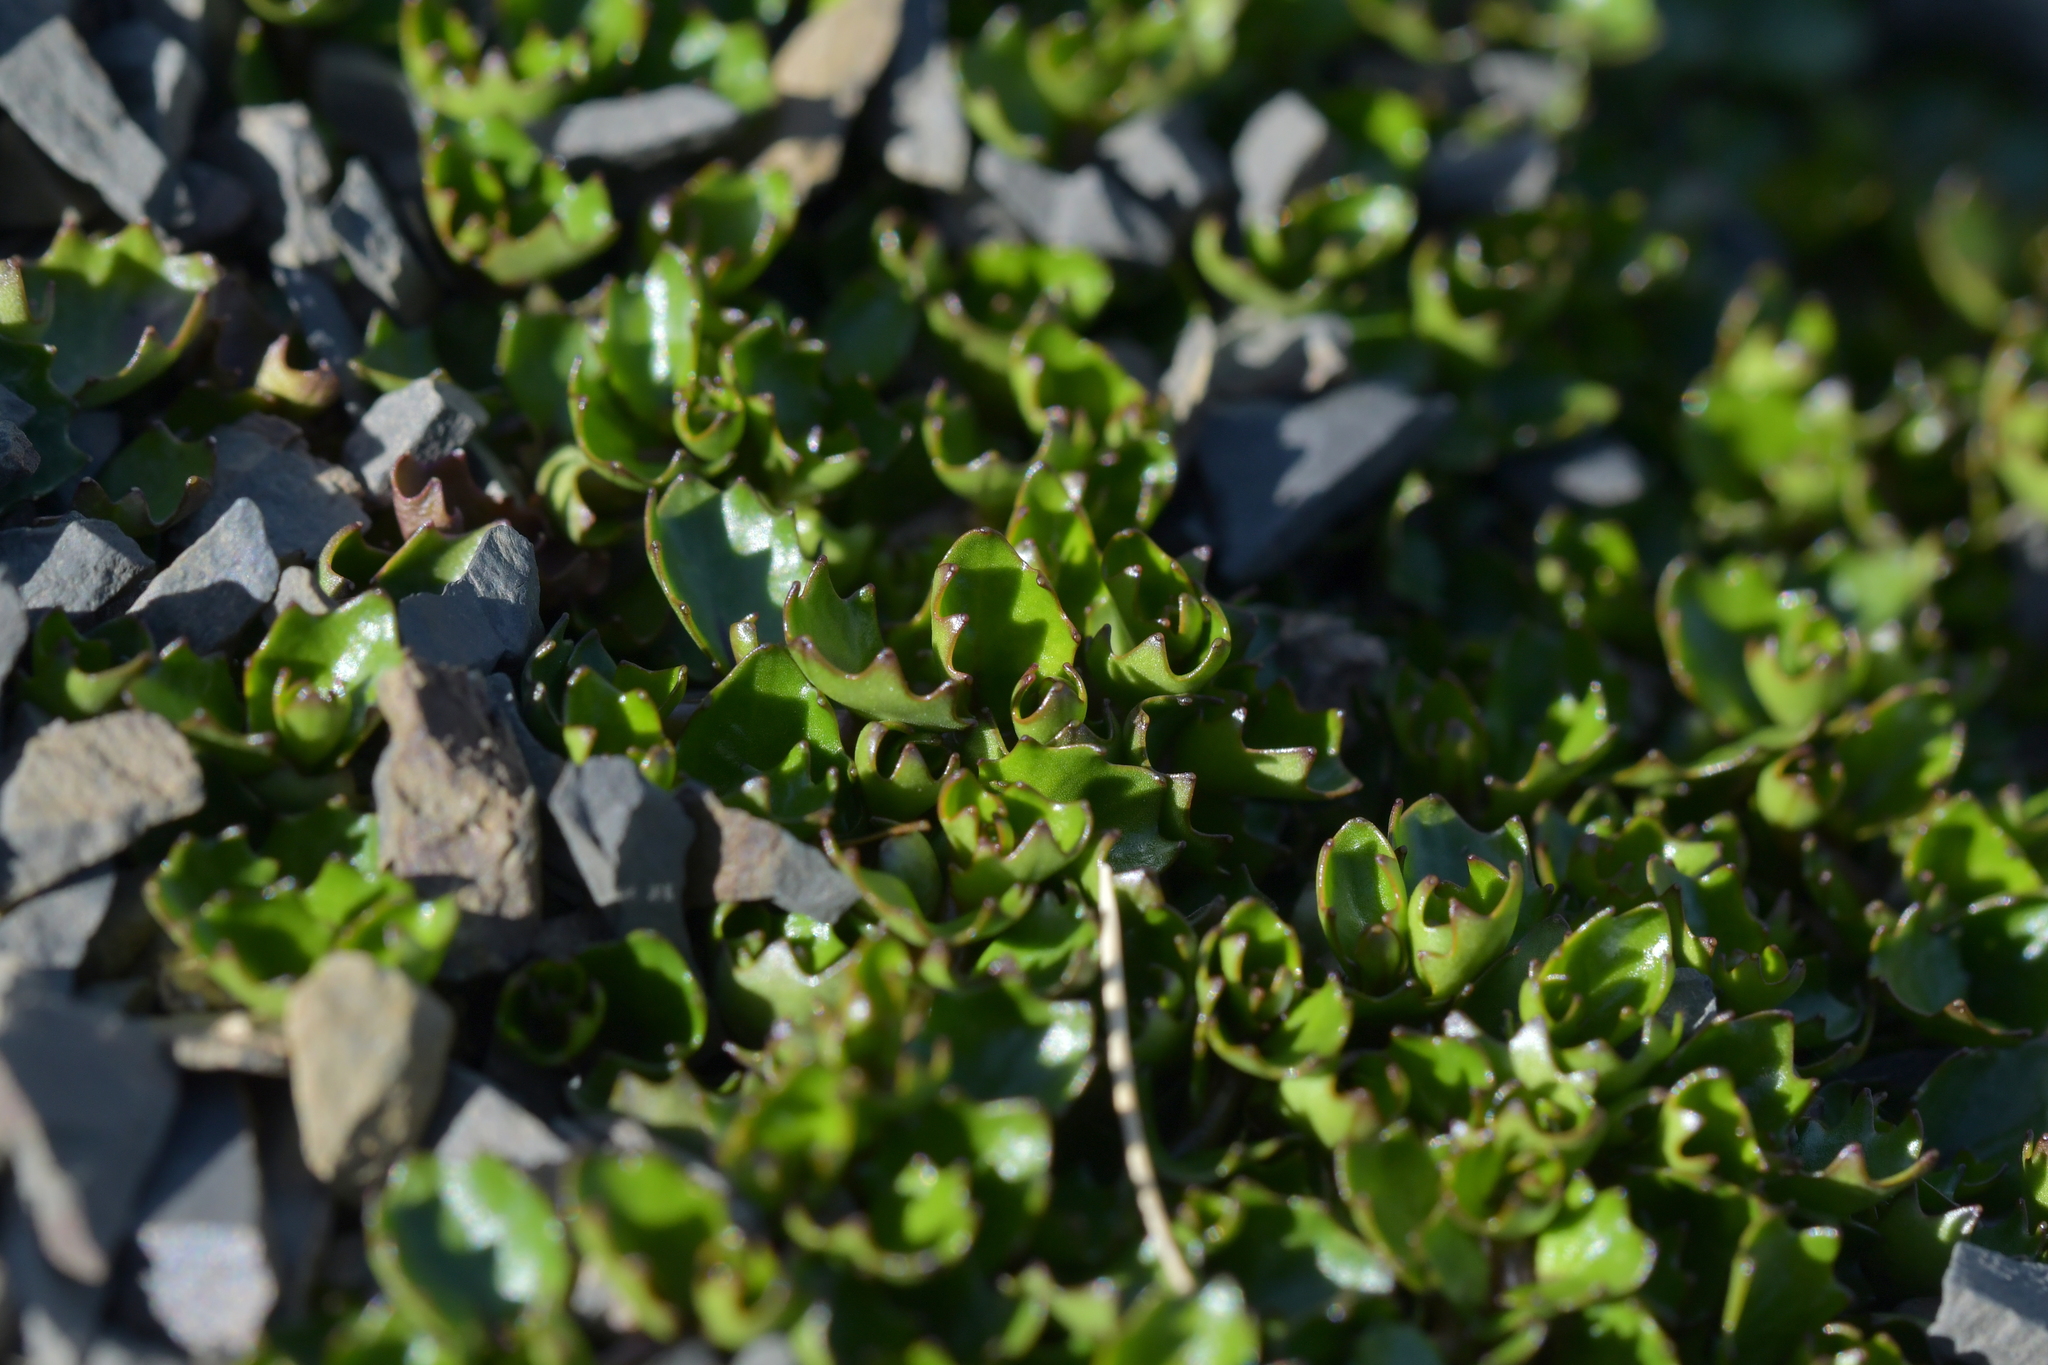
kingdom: Plantae
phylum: Tracheophyta
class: Magnoliopsida
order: Asterales
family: Campanulaceae
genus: Lobelia
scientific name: Lobelia macrodon
